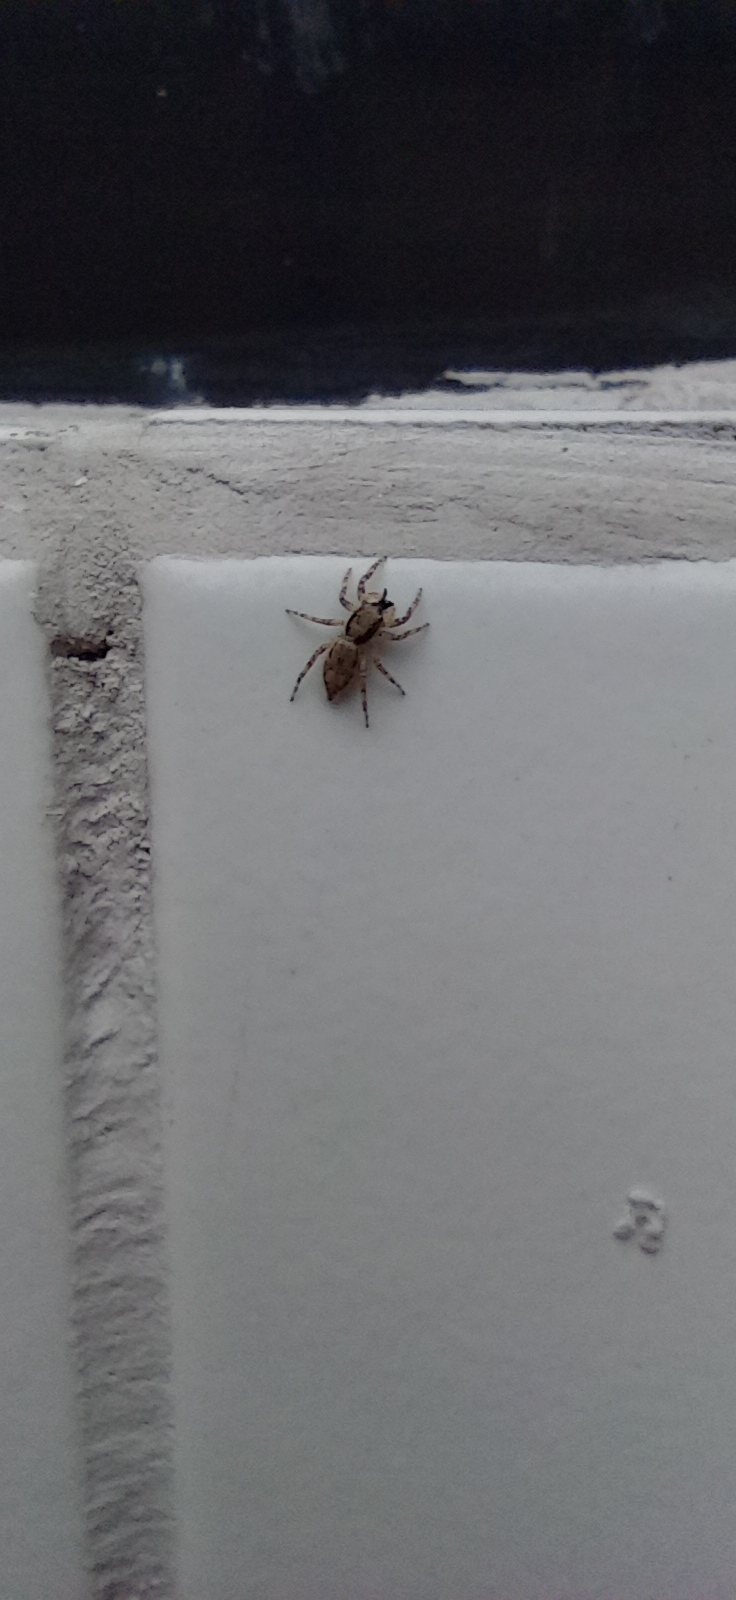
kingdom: Animalia
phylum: Arthropoda
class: Arachnida
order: Araneae
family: Salticidae
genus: Menemerus
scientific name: Menemerus bivittatus
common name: Gray wall jumper
